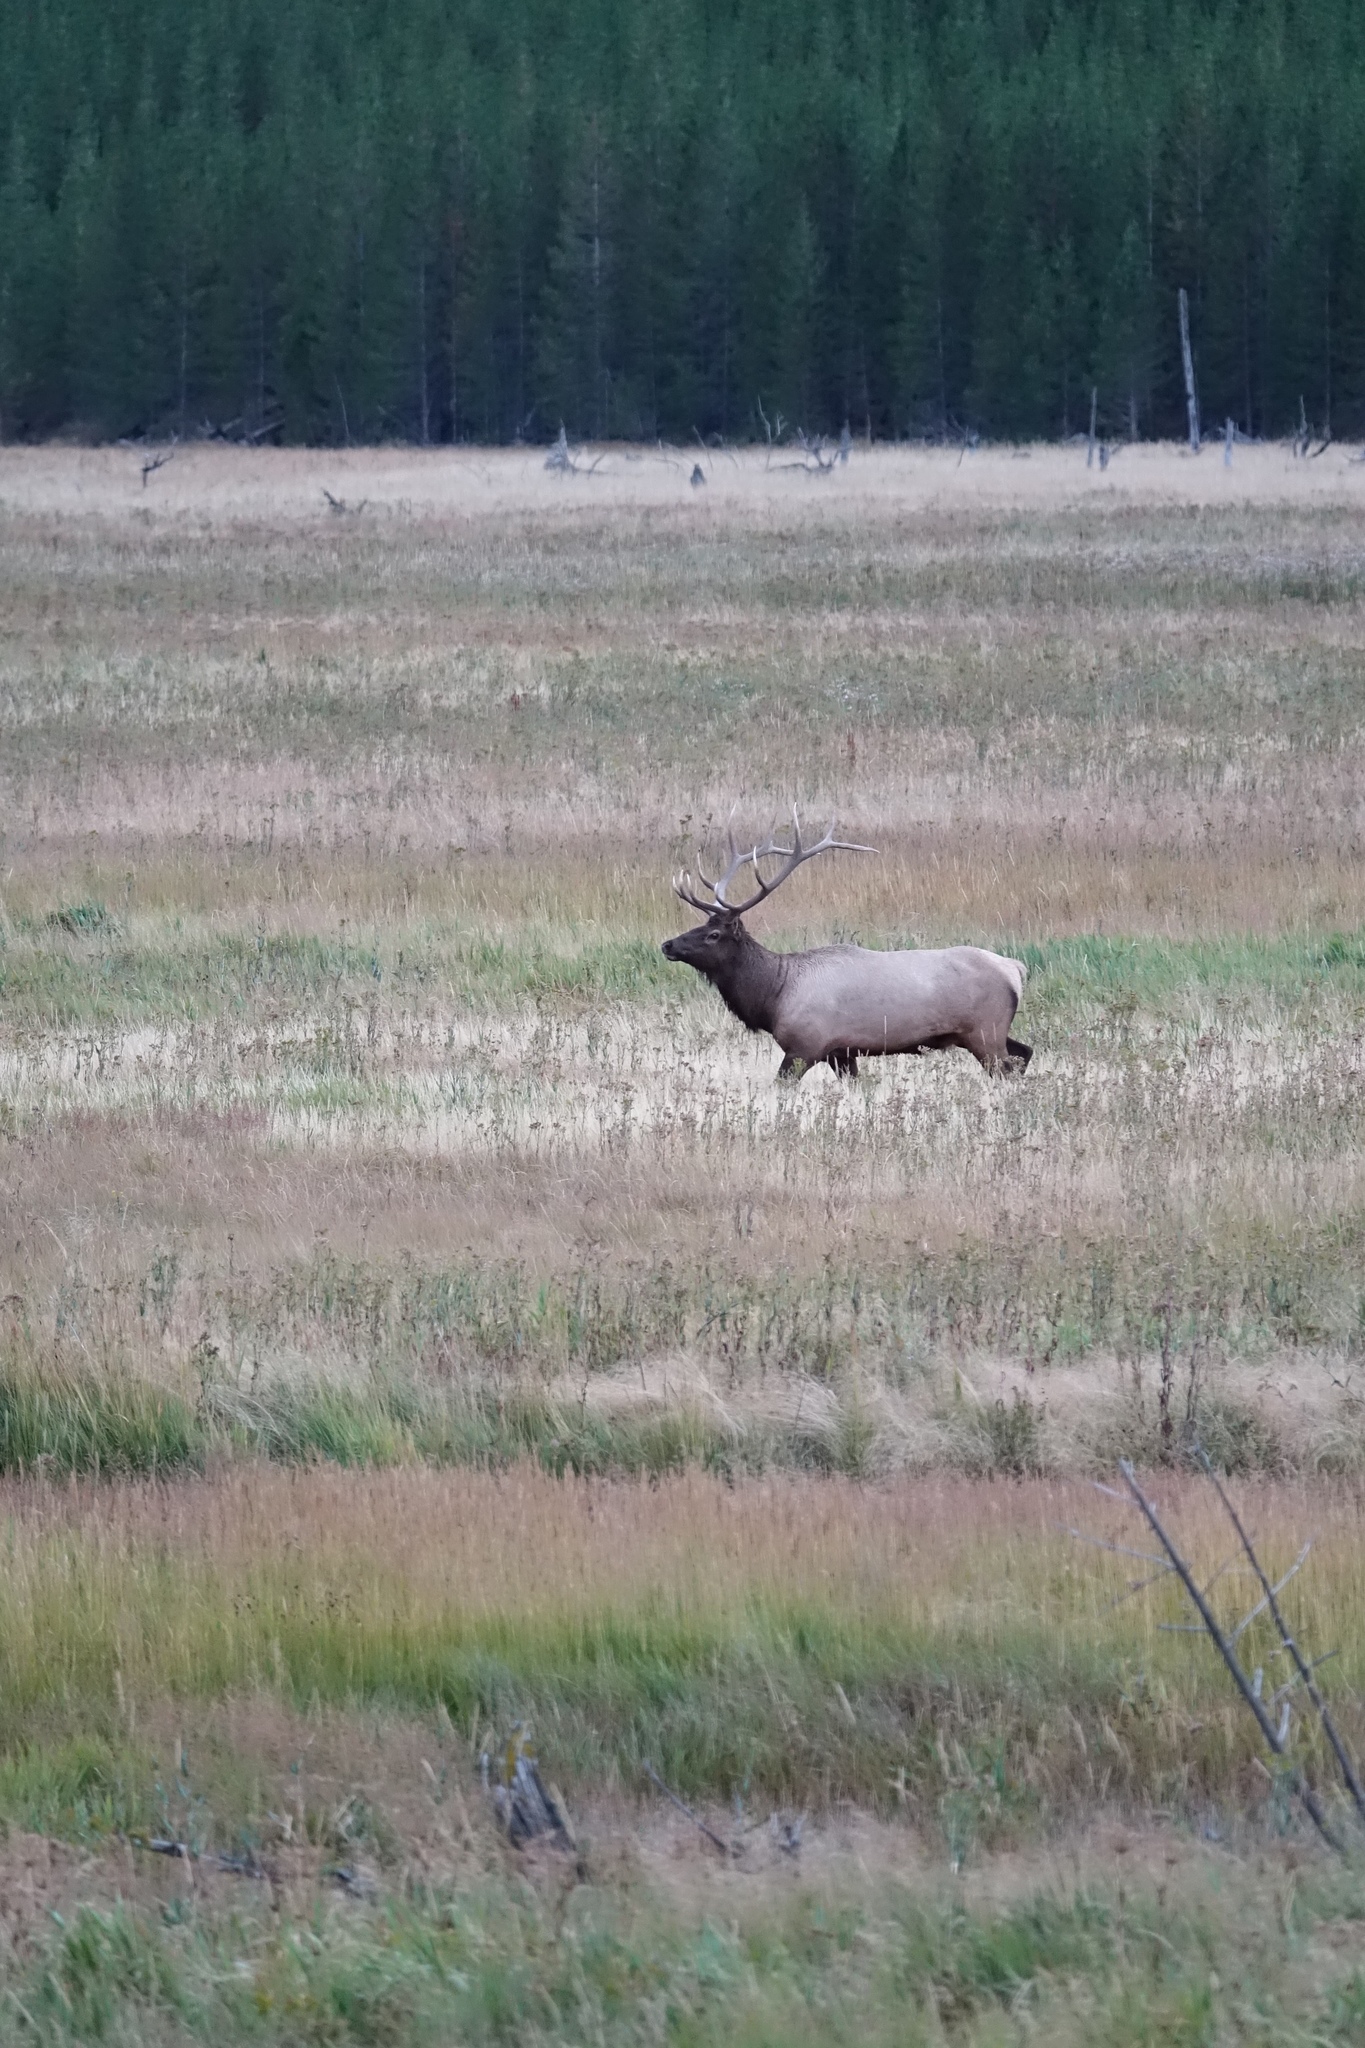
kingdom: Animalia
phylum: Chordata
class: Mammalia
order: Artiodactyla
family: Cervidae
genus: Cervus
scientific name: Cervus elaphus
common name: Red deer
